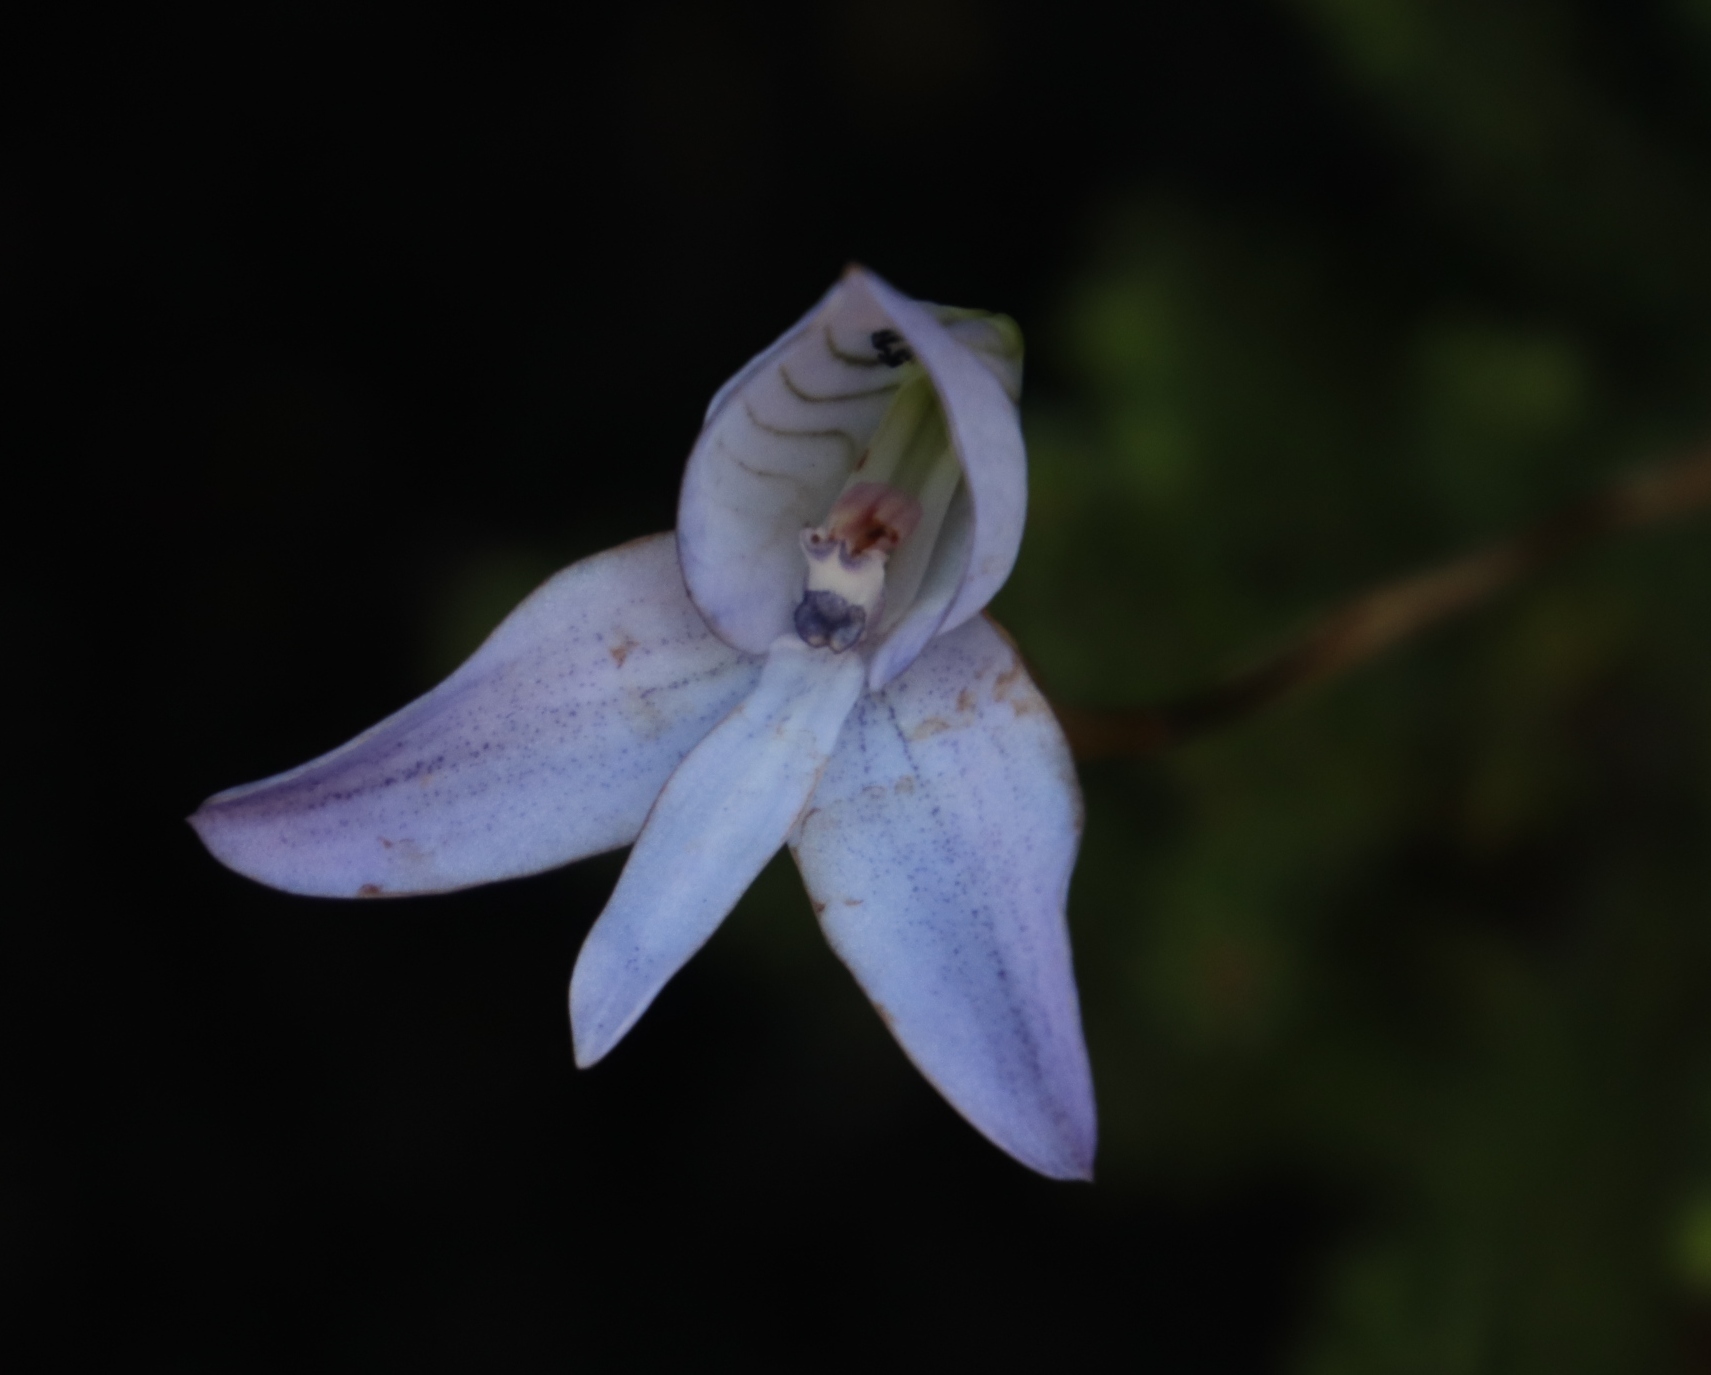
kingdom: Plantae
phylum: Tracheophyta
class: Liliopsida
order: Asparagales
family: Orchidaceae
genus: Disa
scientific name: Disa maculata
